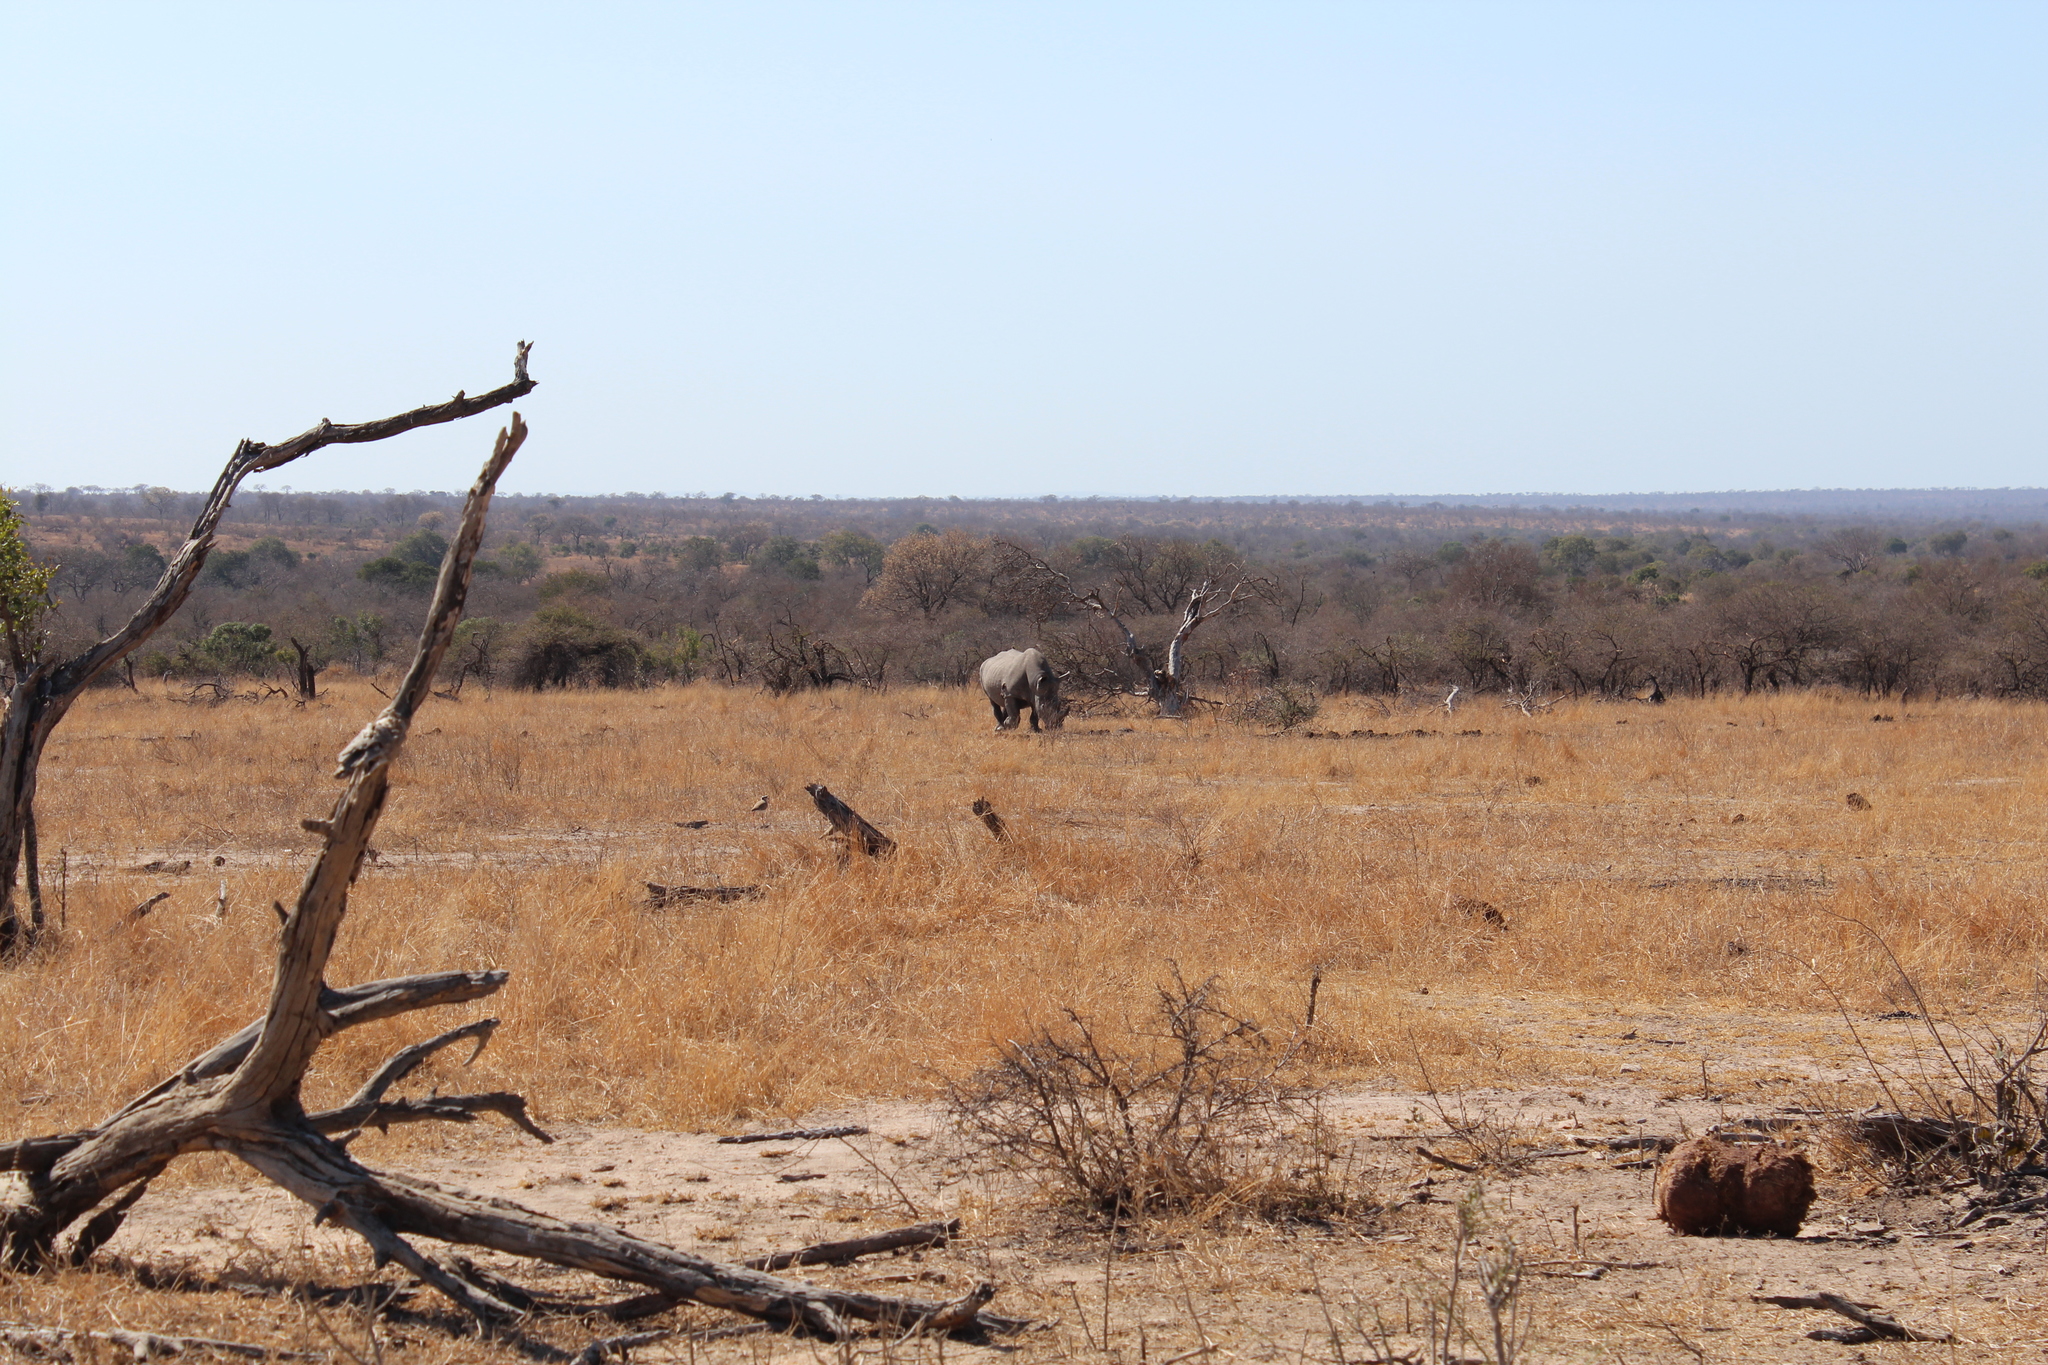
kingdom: Animalia
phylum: Chordata
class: Mammalia
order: Perissodactyla
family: Rhinocerotidae
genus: Ceratotherium
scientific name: Ceratotherium simum
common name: White rhinoceros
